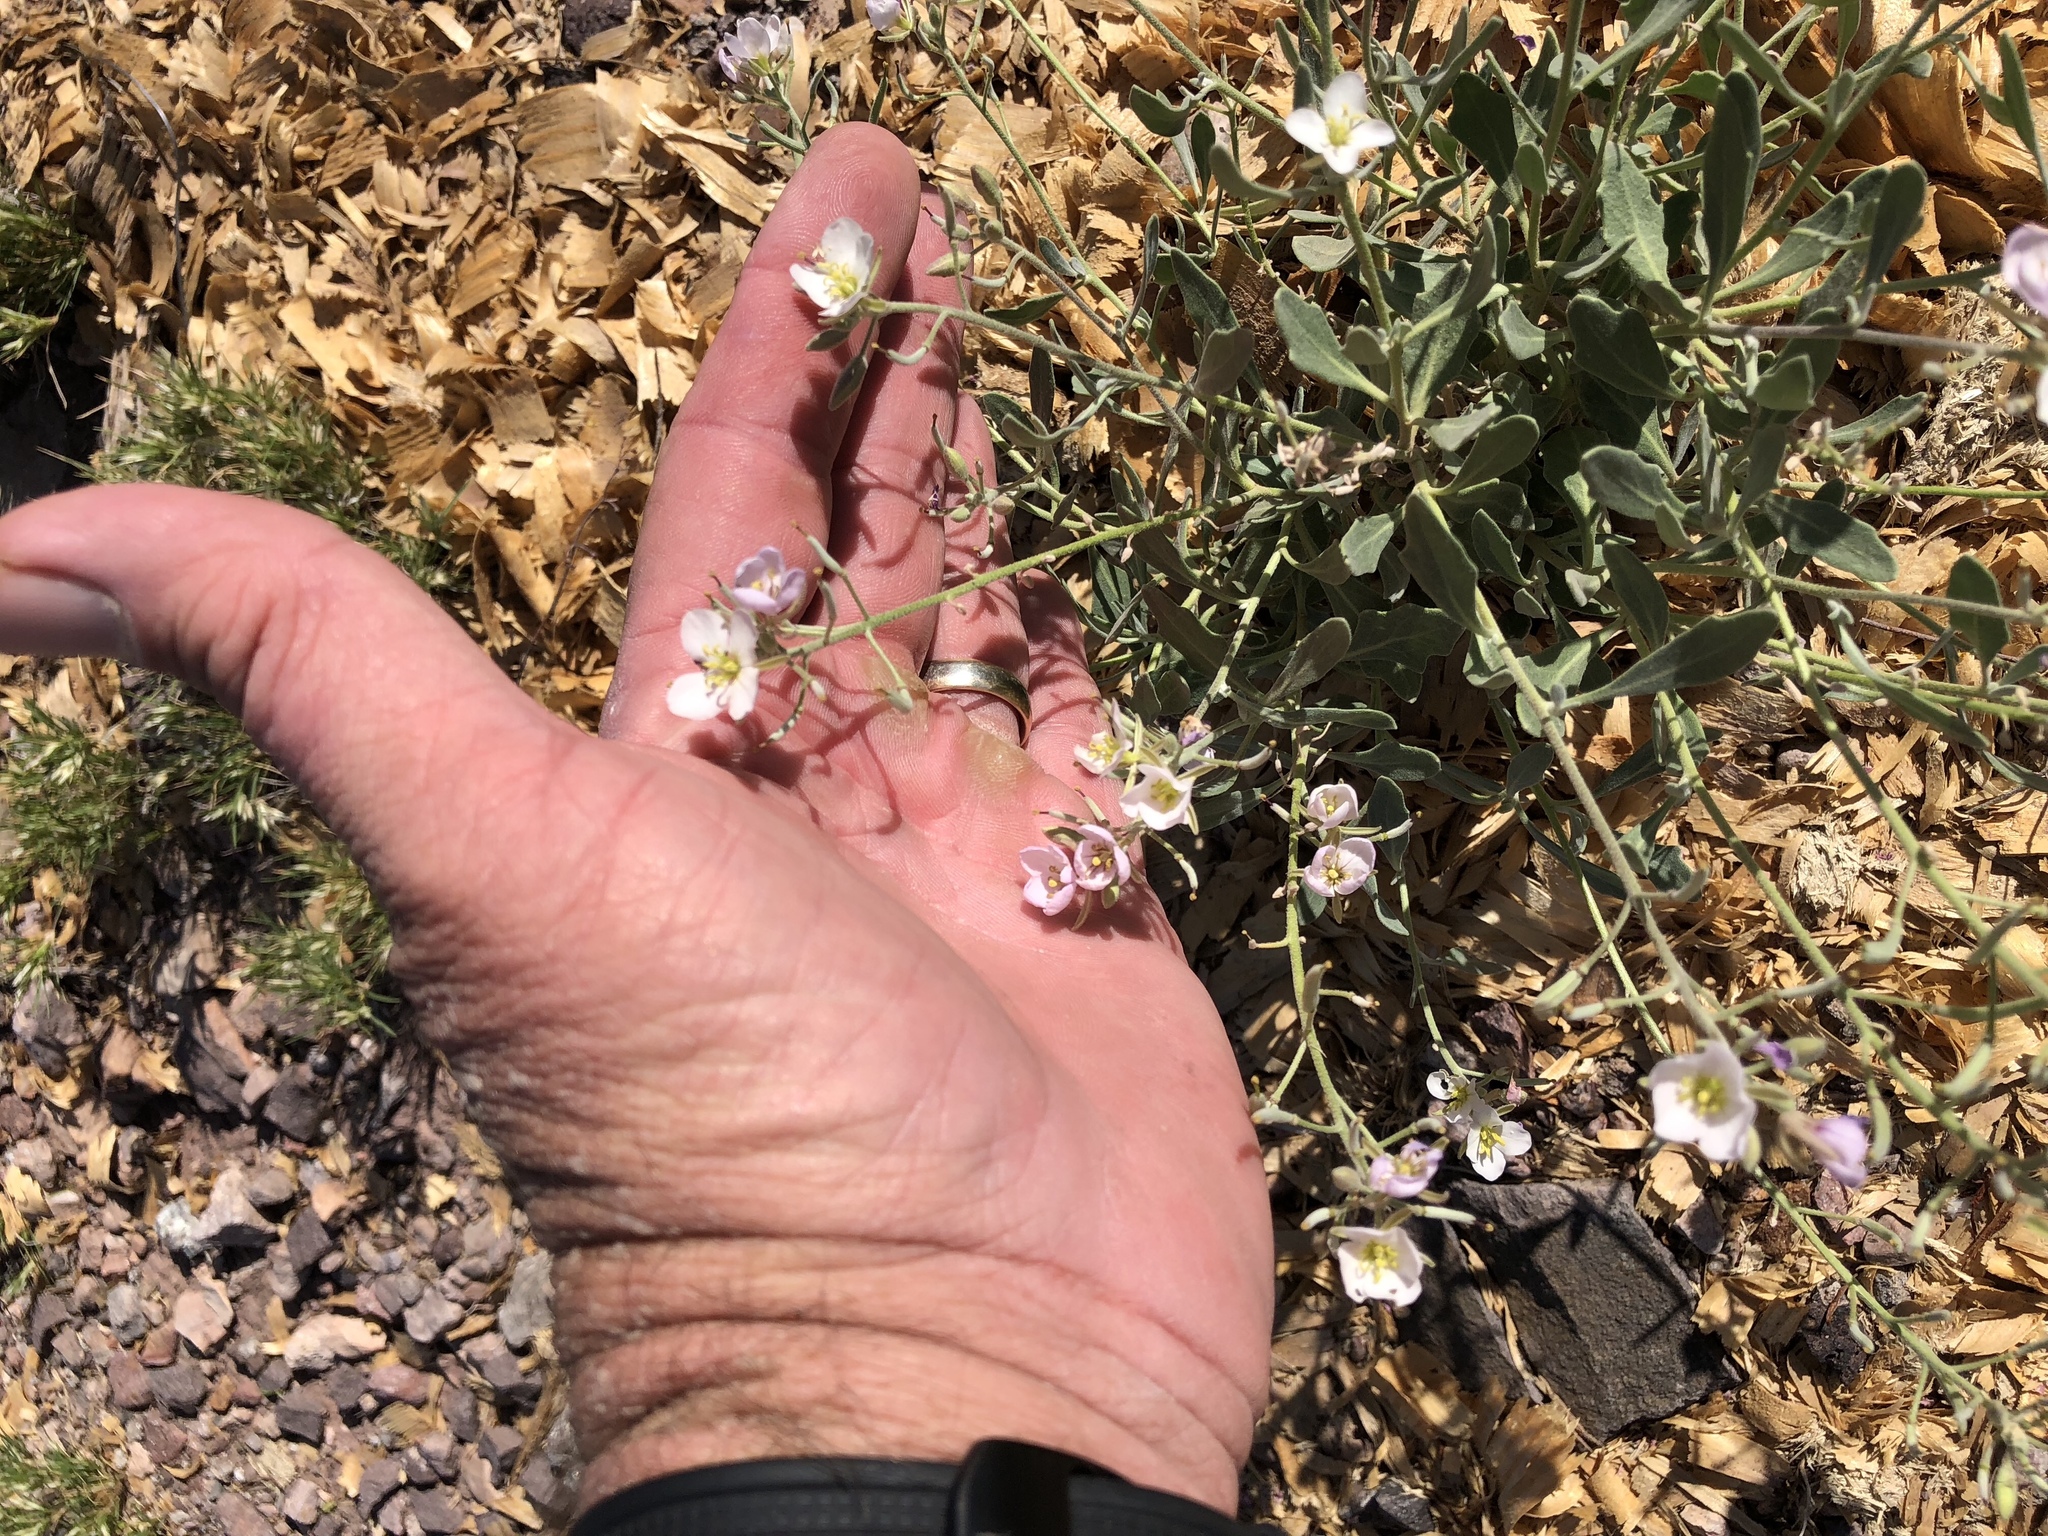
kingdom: Plantae
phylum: Tracheophyta
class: Magnoliopsida
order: Brassicales
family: Brassicaceae
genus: Nerisyrenia
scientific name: Nerisyrenia camporum
